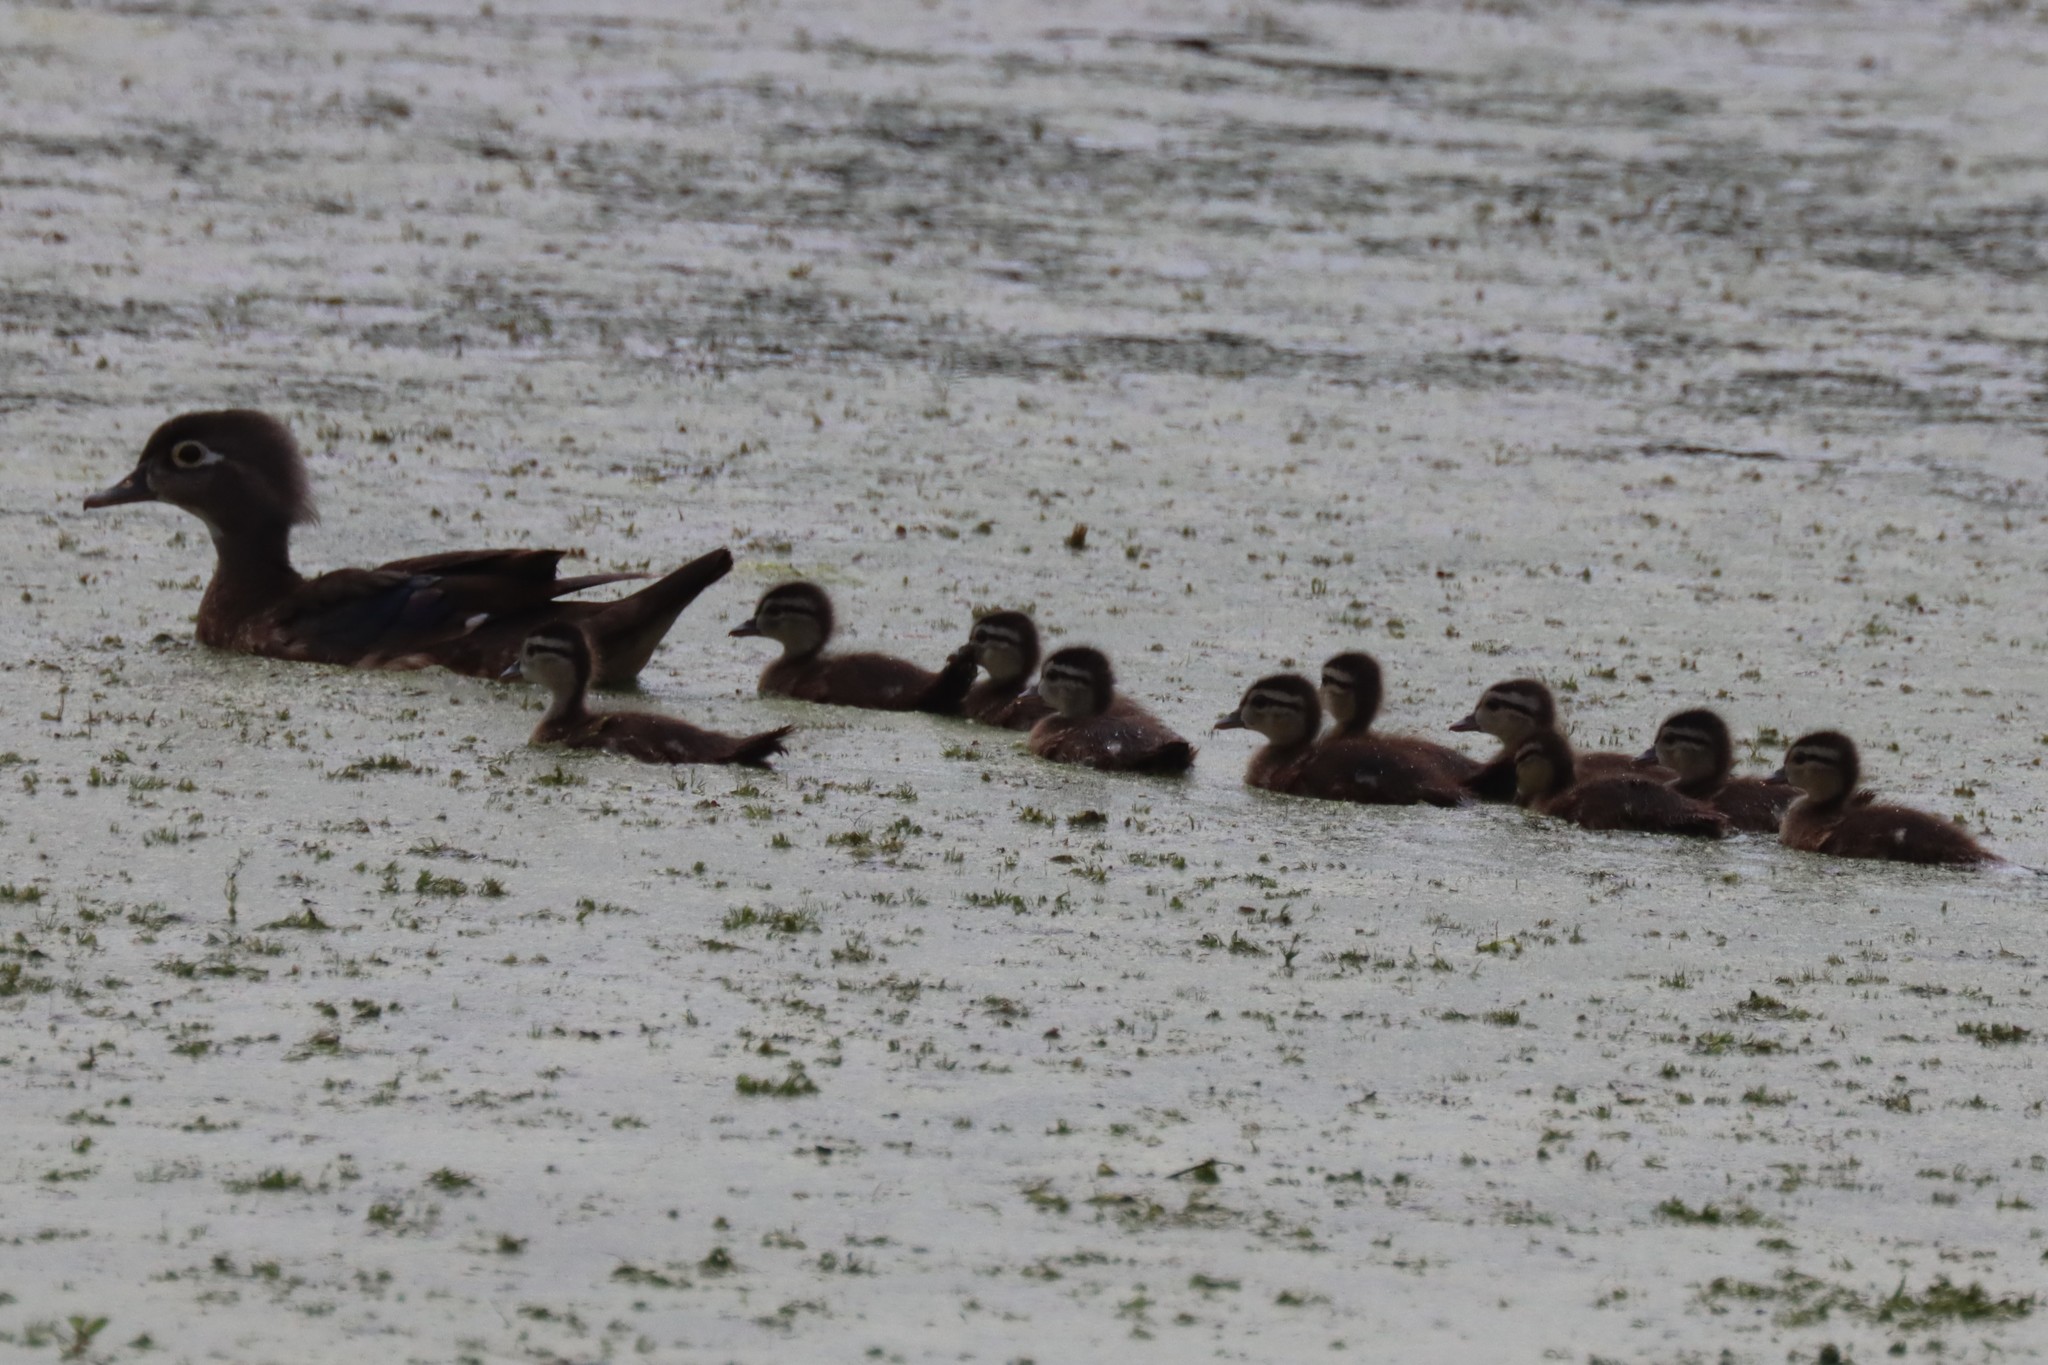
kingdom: Animalia
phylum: Chordata
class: Aves
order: Anseriformes
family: Anatidae
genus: Aix
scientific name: Aix sponsa
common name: Wood duck
